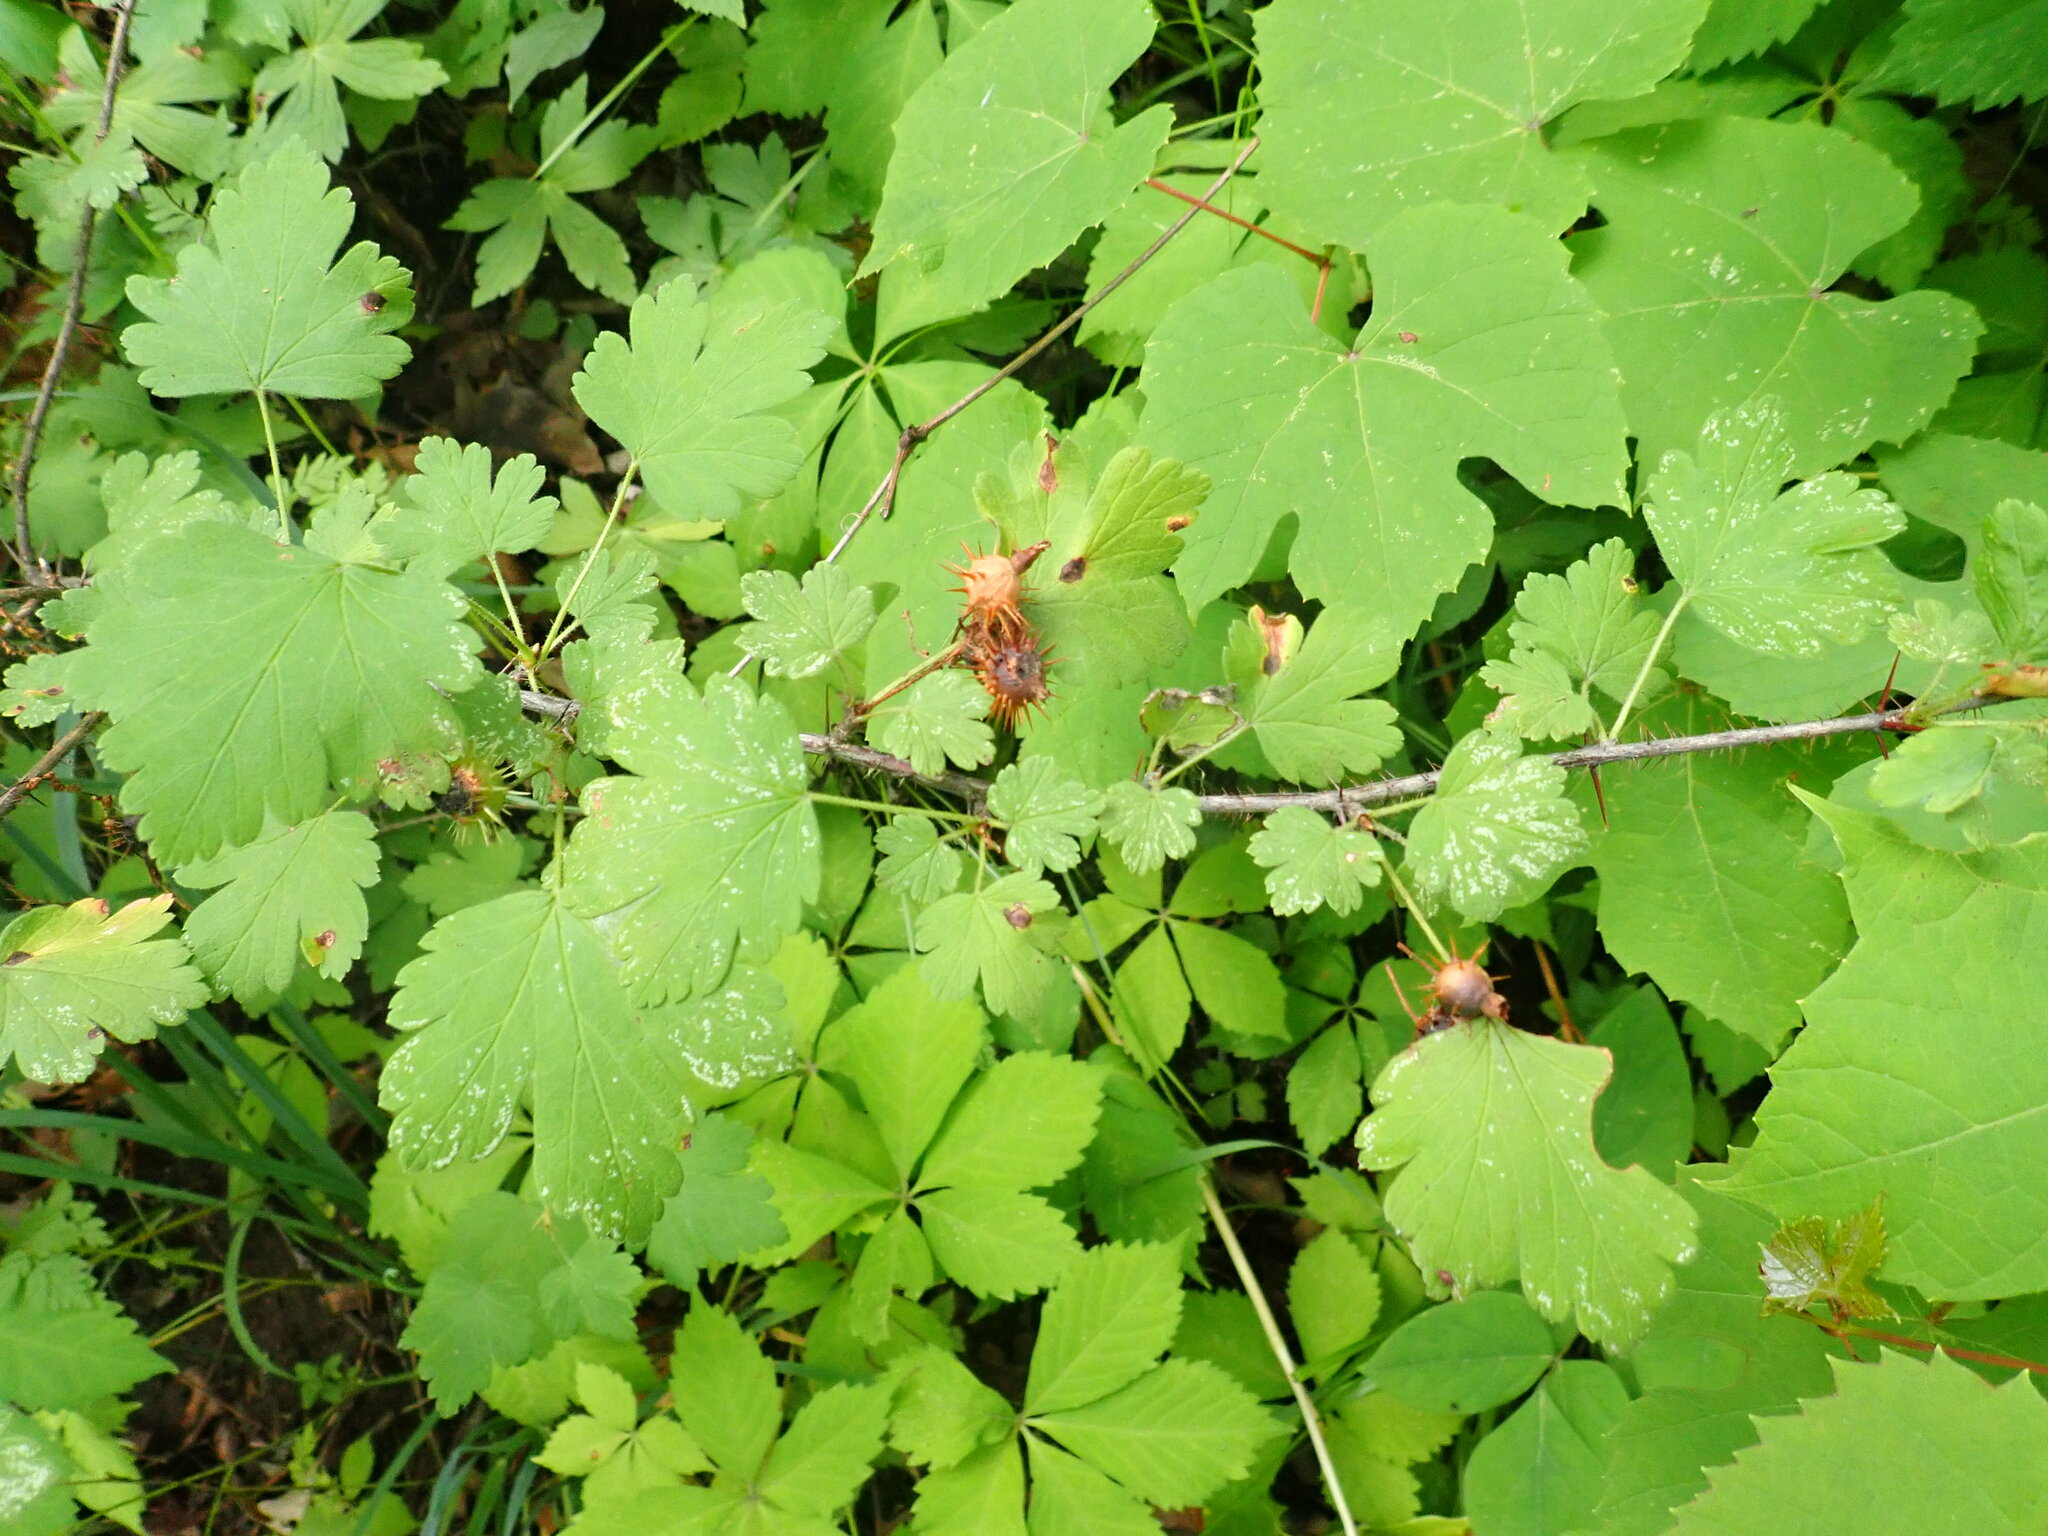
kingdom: Plantae
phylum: Tracheophyta
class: Magnoliopsida
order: Saxifragales
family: Grossulariaceae
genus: Ribes
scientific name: Ribes cynosbati
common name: American gooseberry
